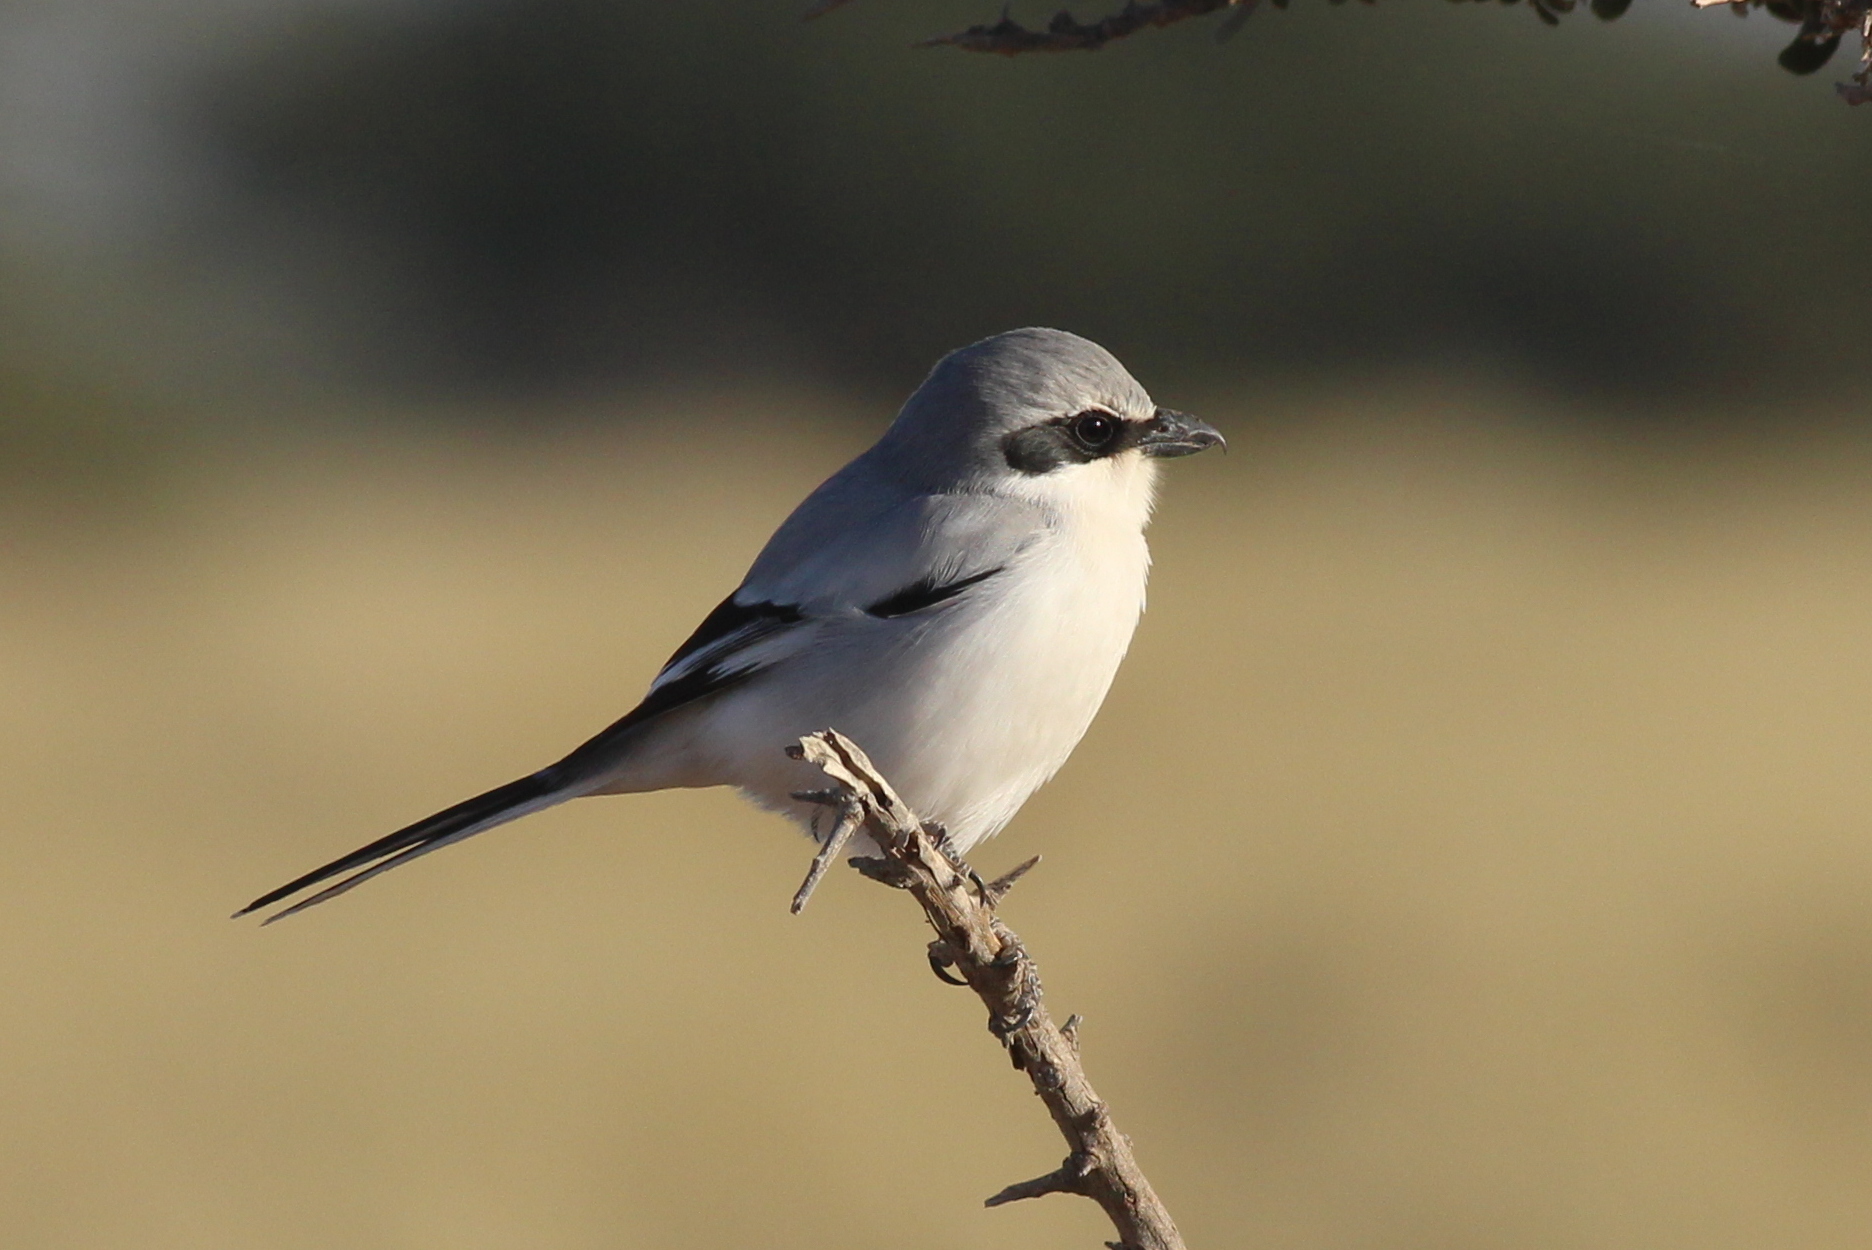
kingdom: Animalia
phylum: Chordata
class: Aves
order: Passeriformes
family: Laniidae
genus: Lanius
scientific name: Lanius excubitor
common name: Great grey shrike
